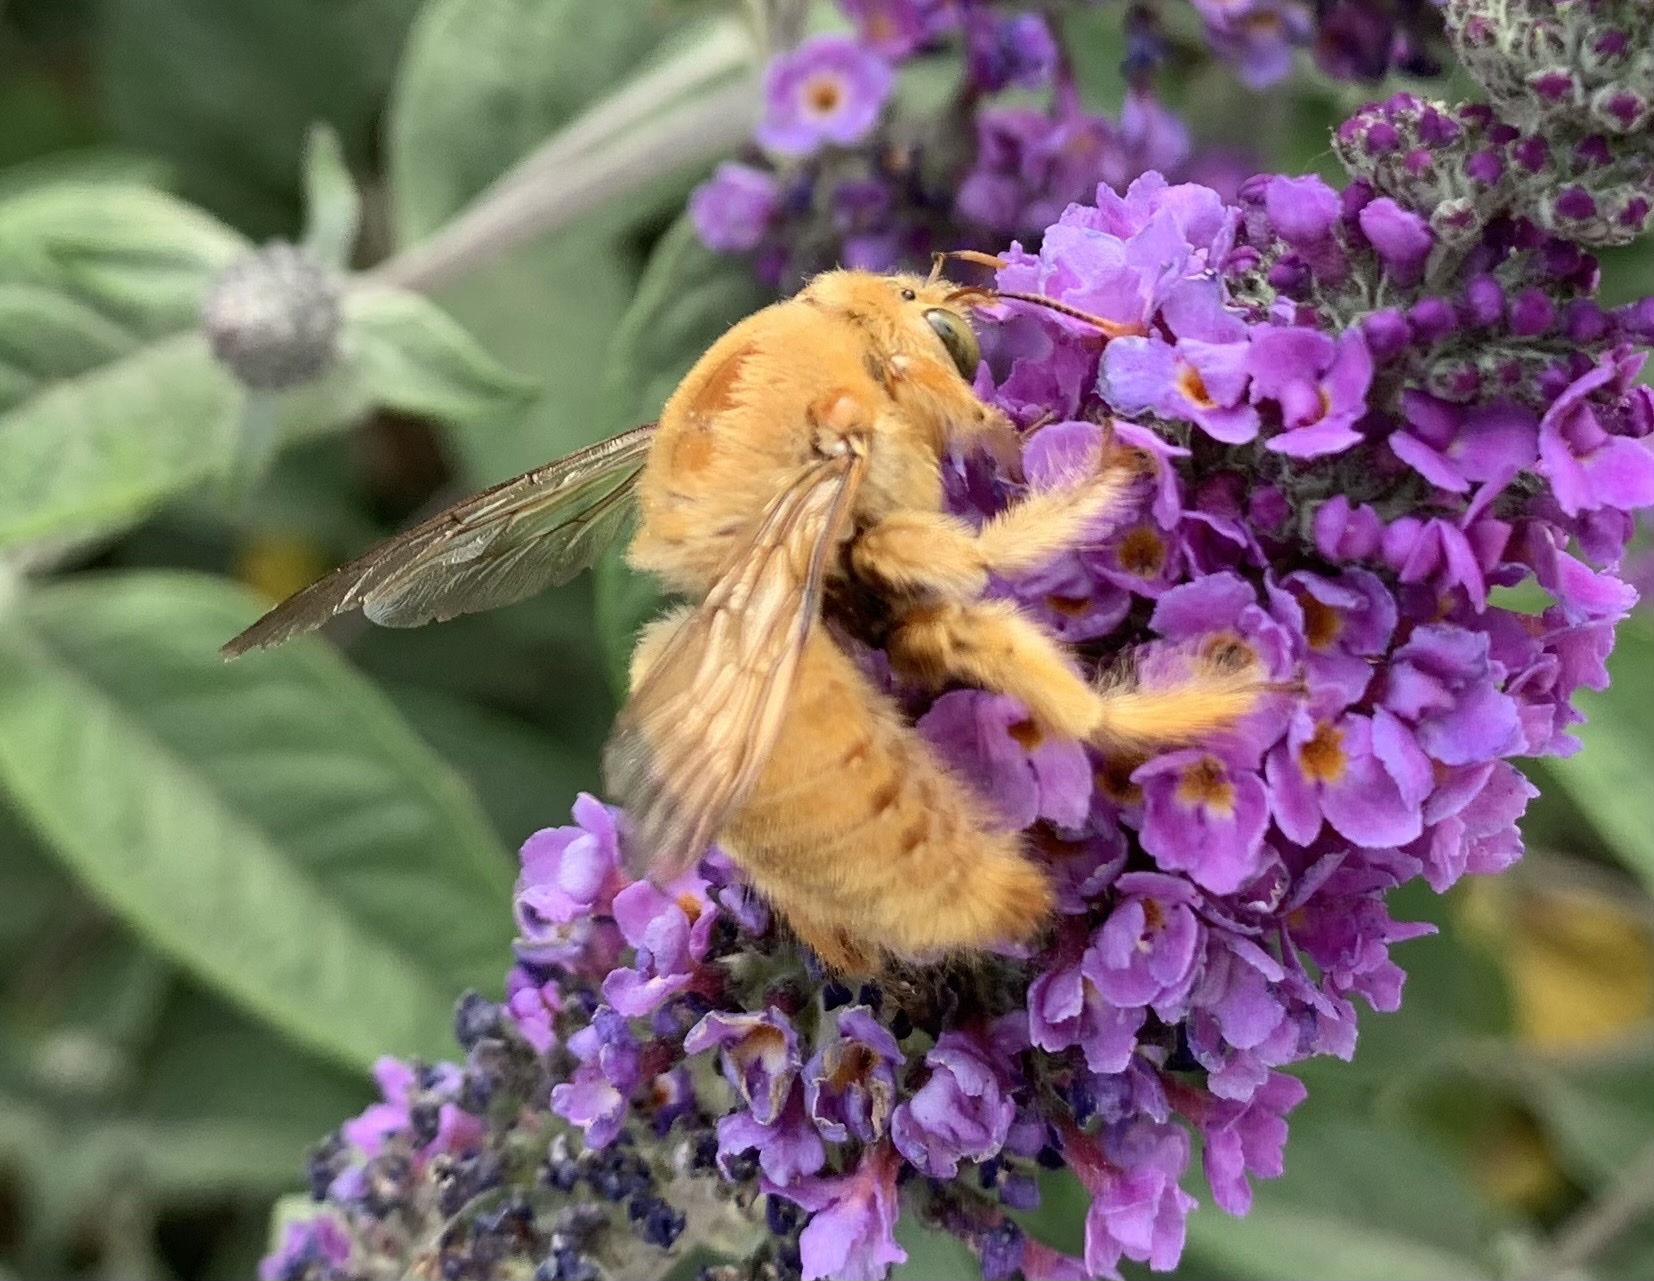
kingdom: Animalia
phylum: Arthropoda
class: Insecta
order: Hymenoptera
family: Apidae
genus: Xylocopa
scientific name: Xylocopa sonorina
